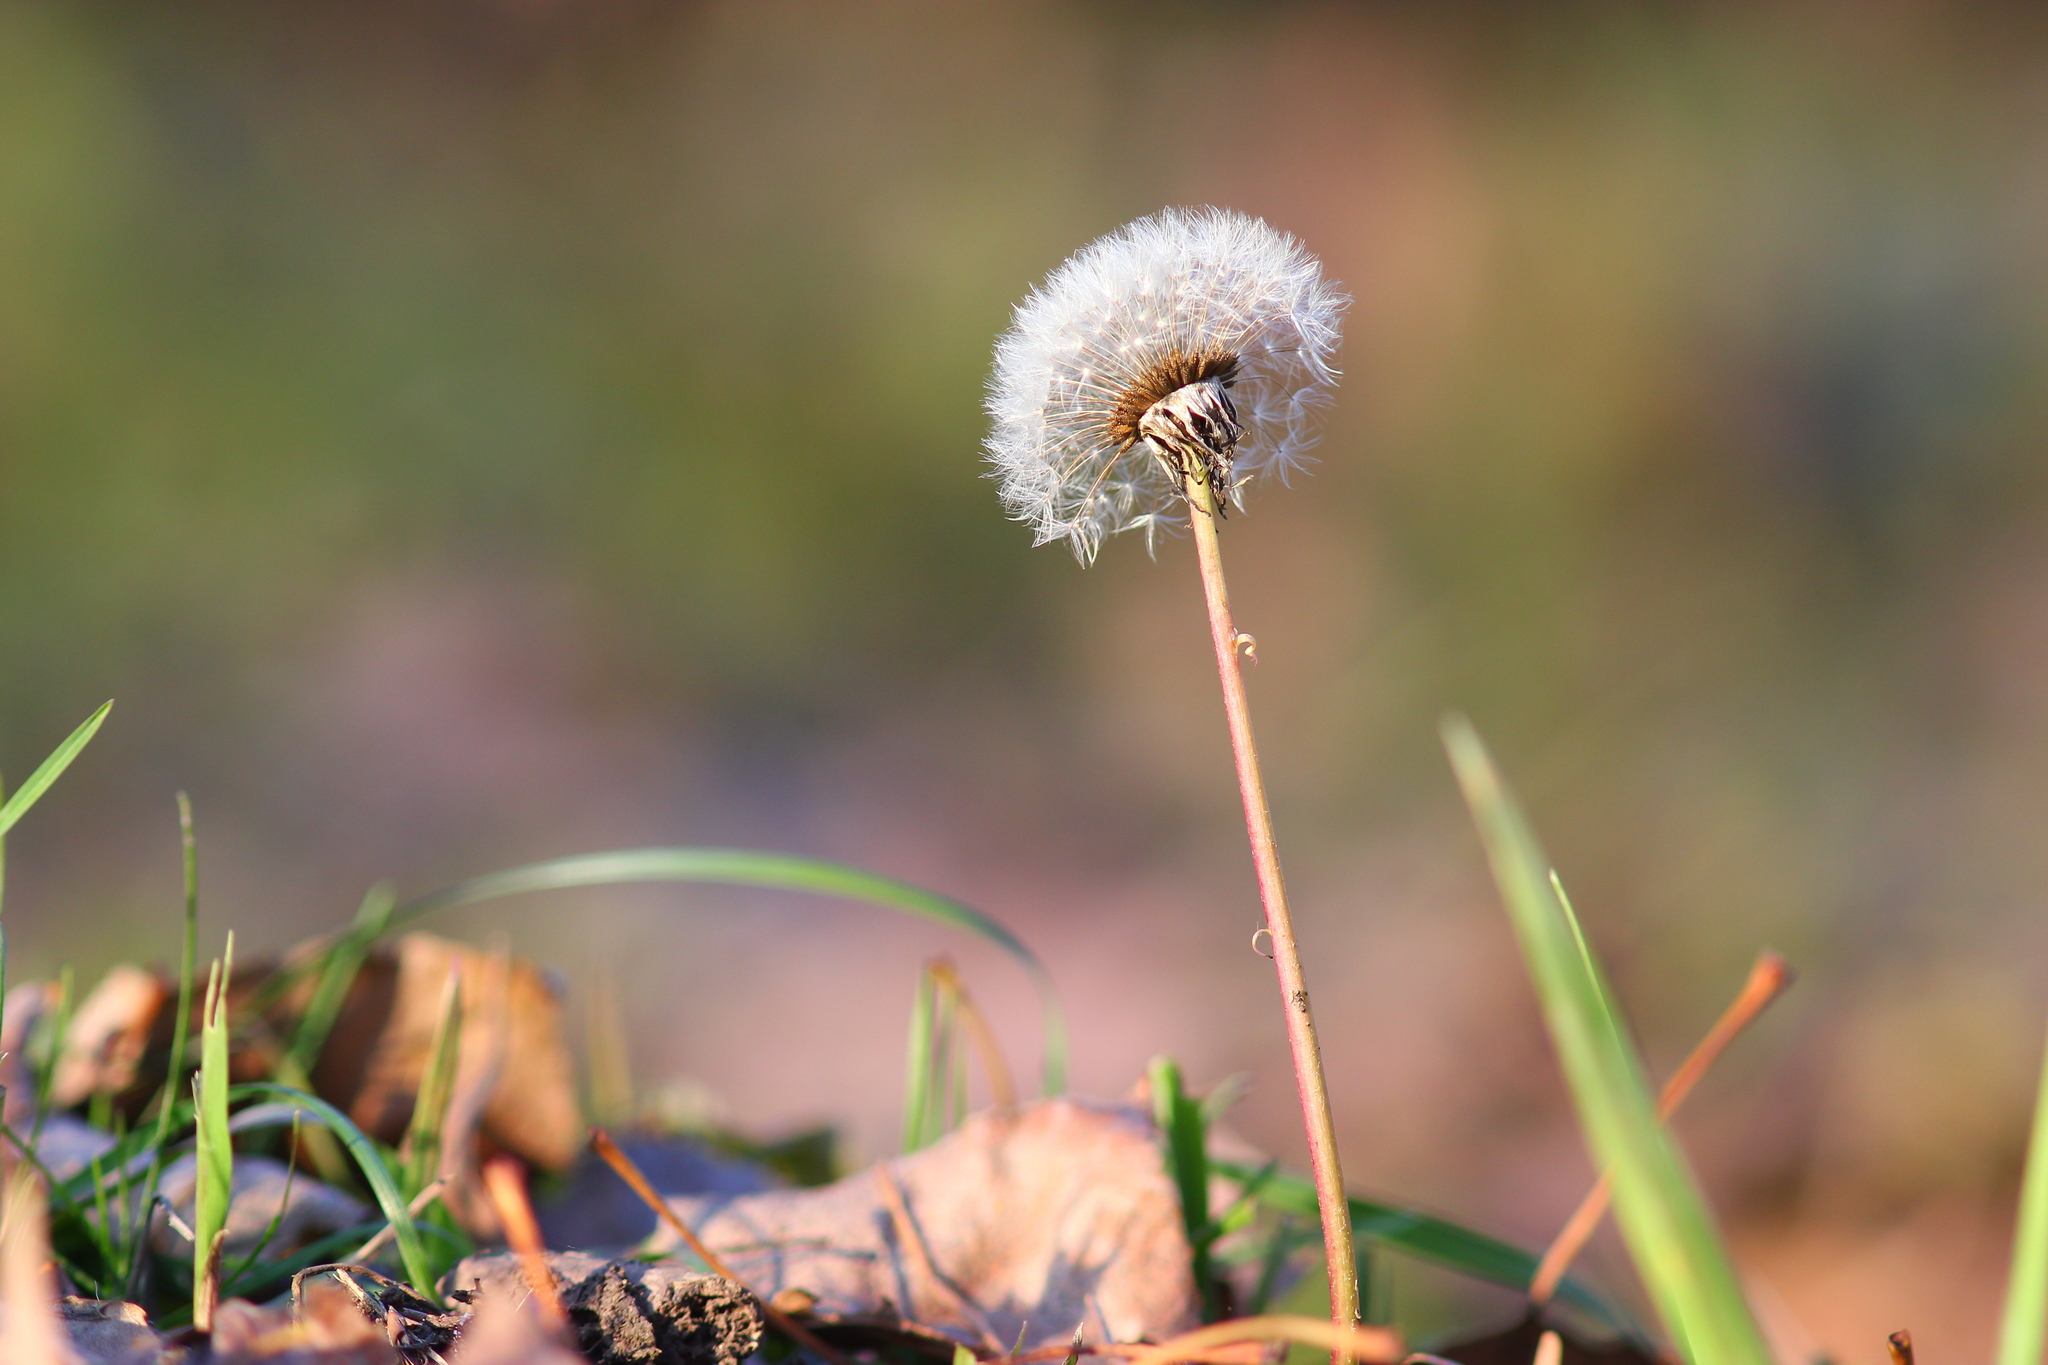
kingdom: Plantae
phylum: Tracheophyta
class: Magnoliopsida
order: Asterales
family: Asteraceae
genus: Taraxacum
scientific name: Taraxacum officinale
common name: Common dandelion
